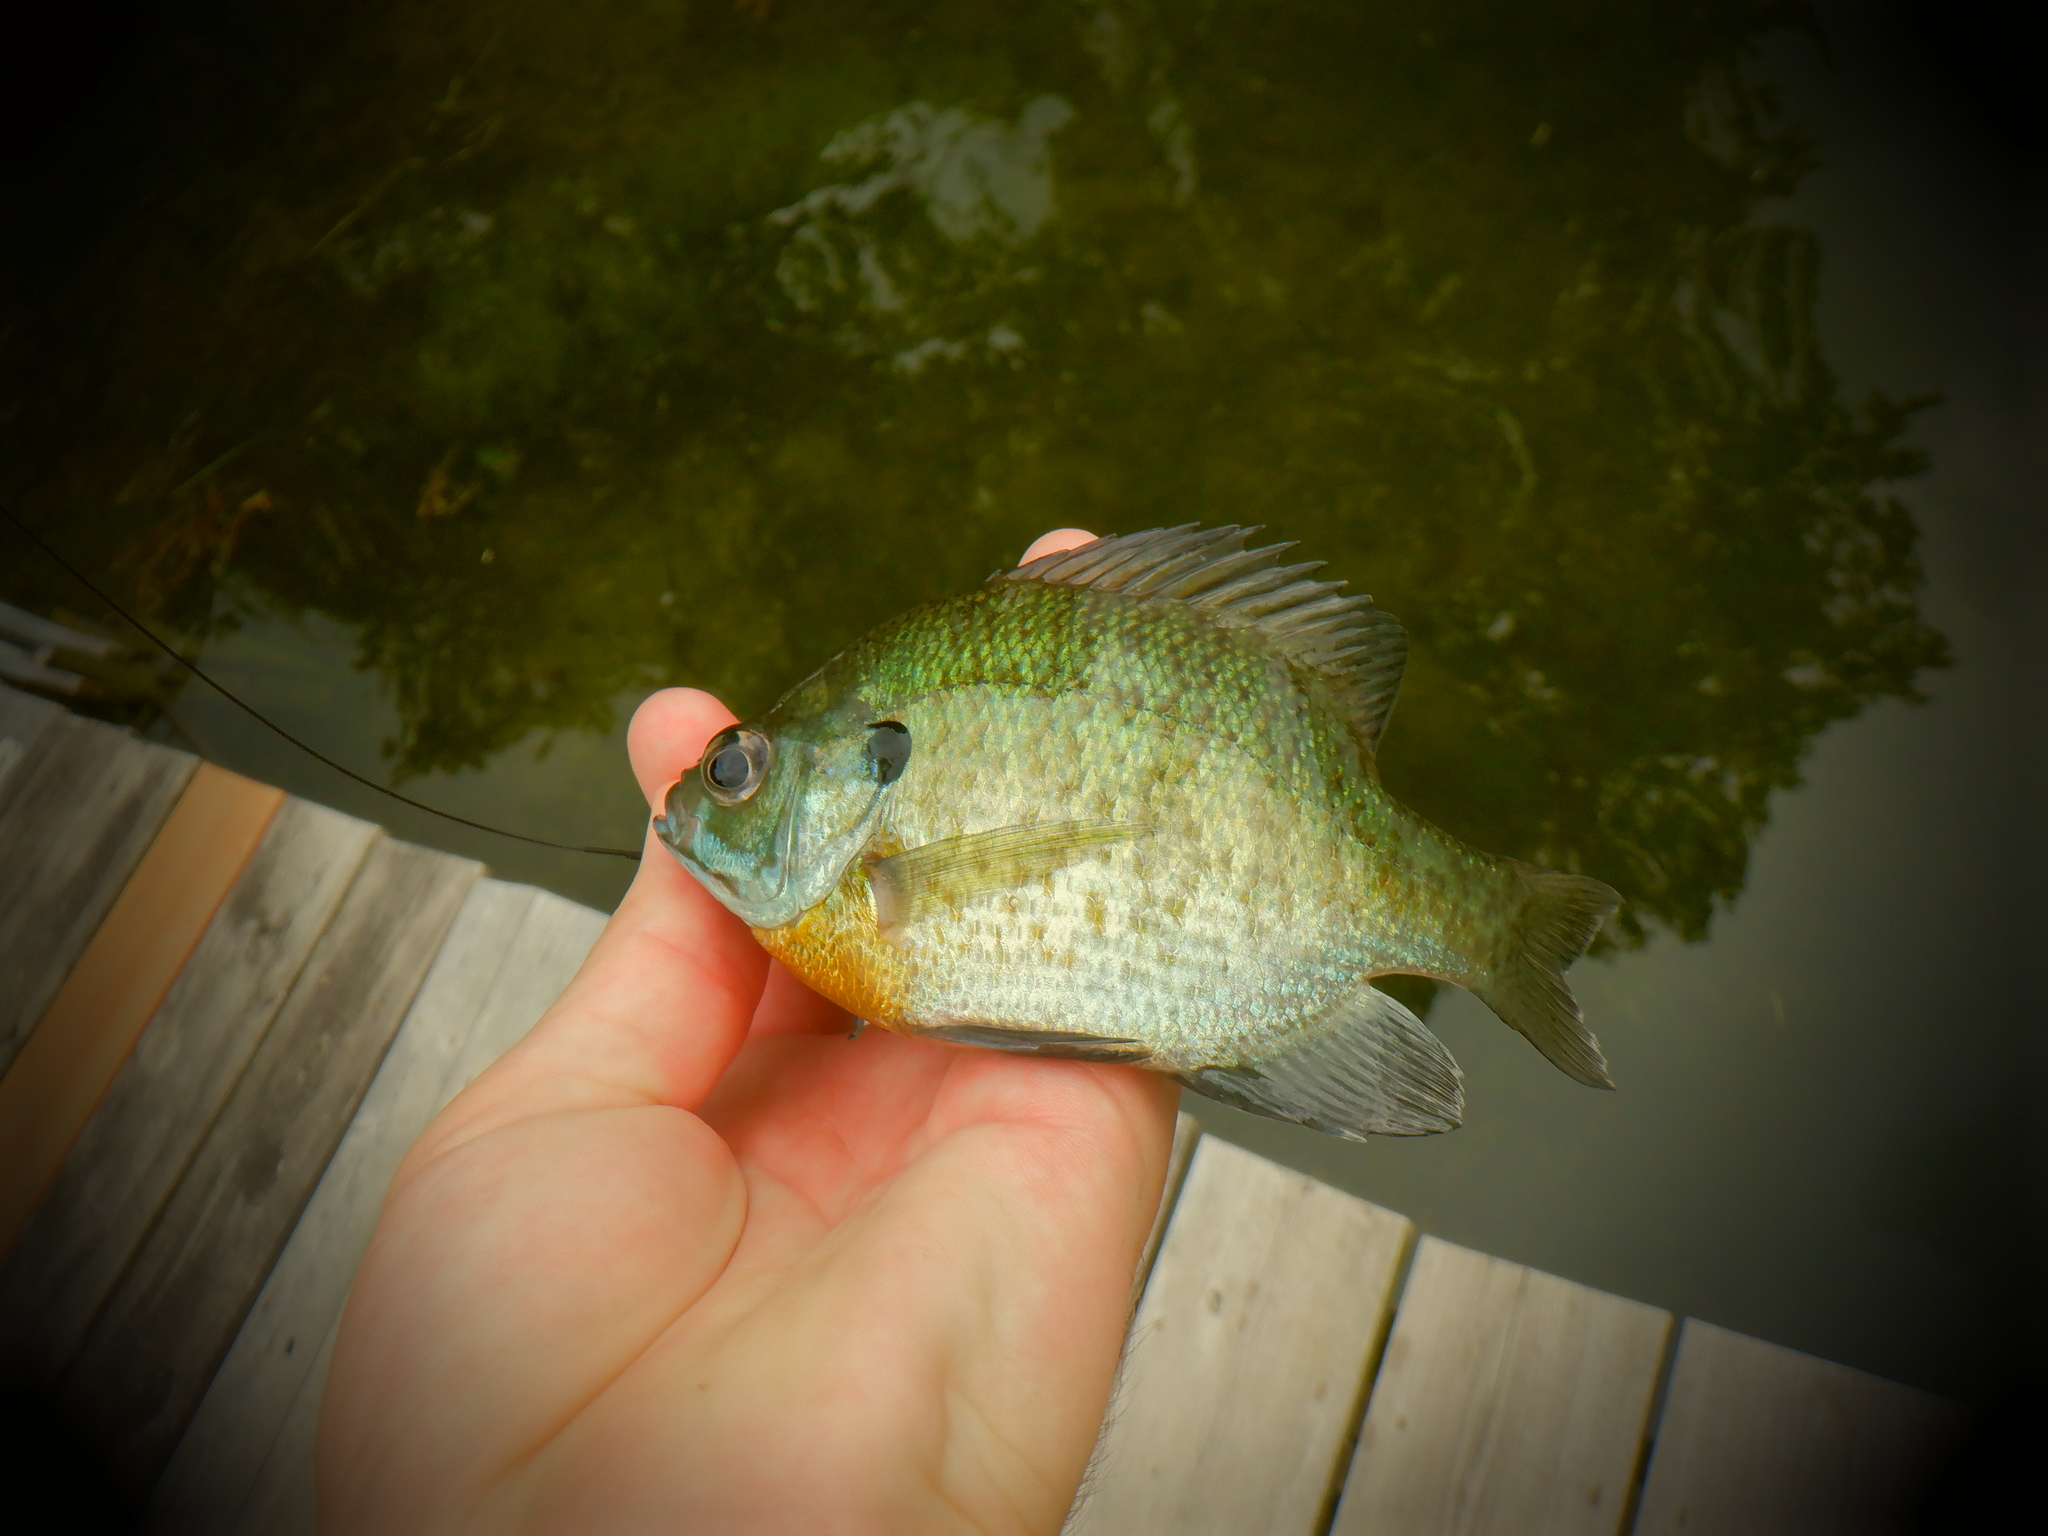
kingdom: Animalia
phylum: Chordata
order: Perciformes
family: Centrarchidae
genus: Lepomis
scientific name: Lepomis macrochirus
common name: Bluegill
